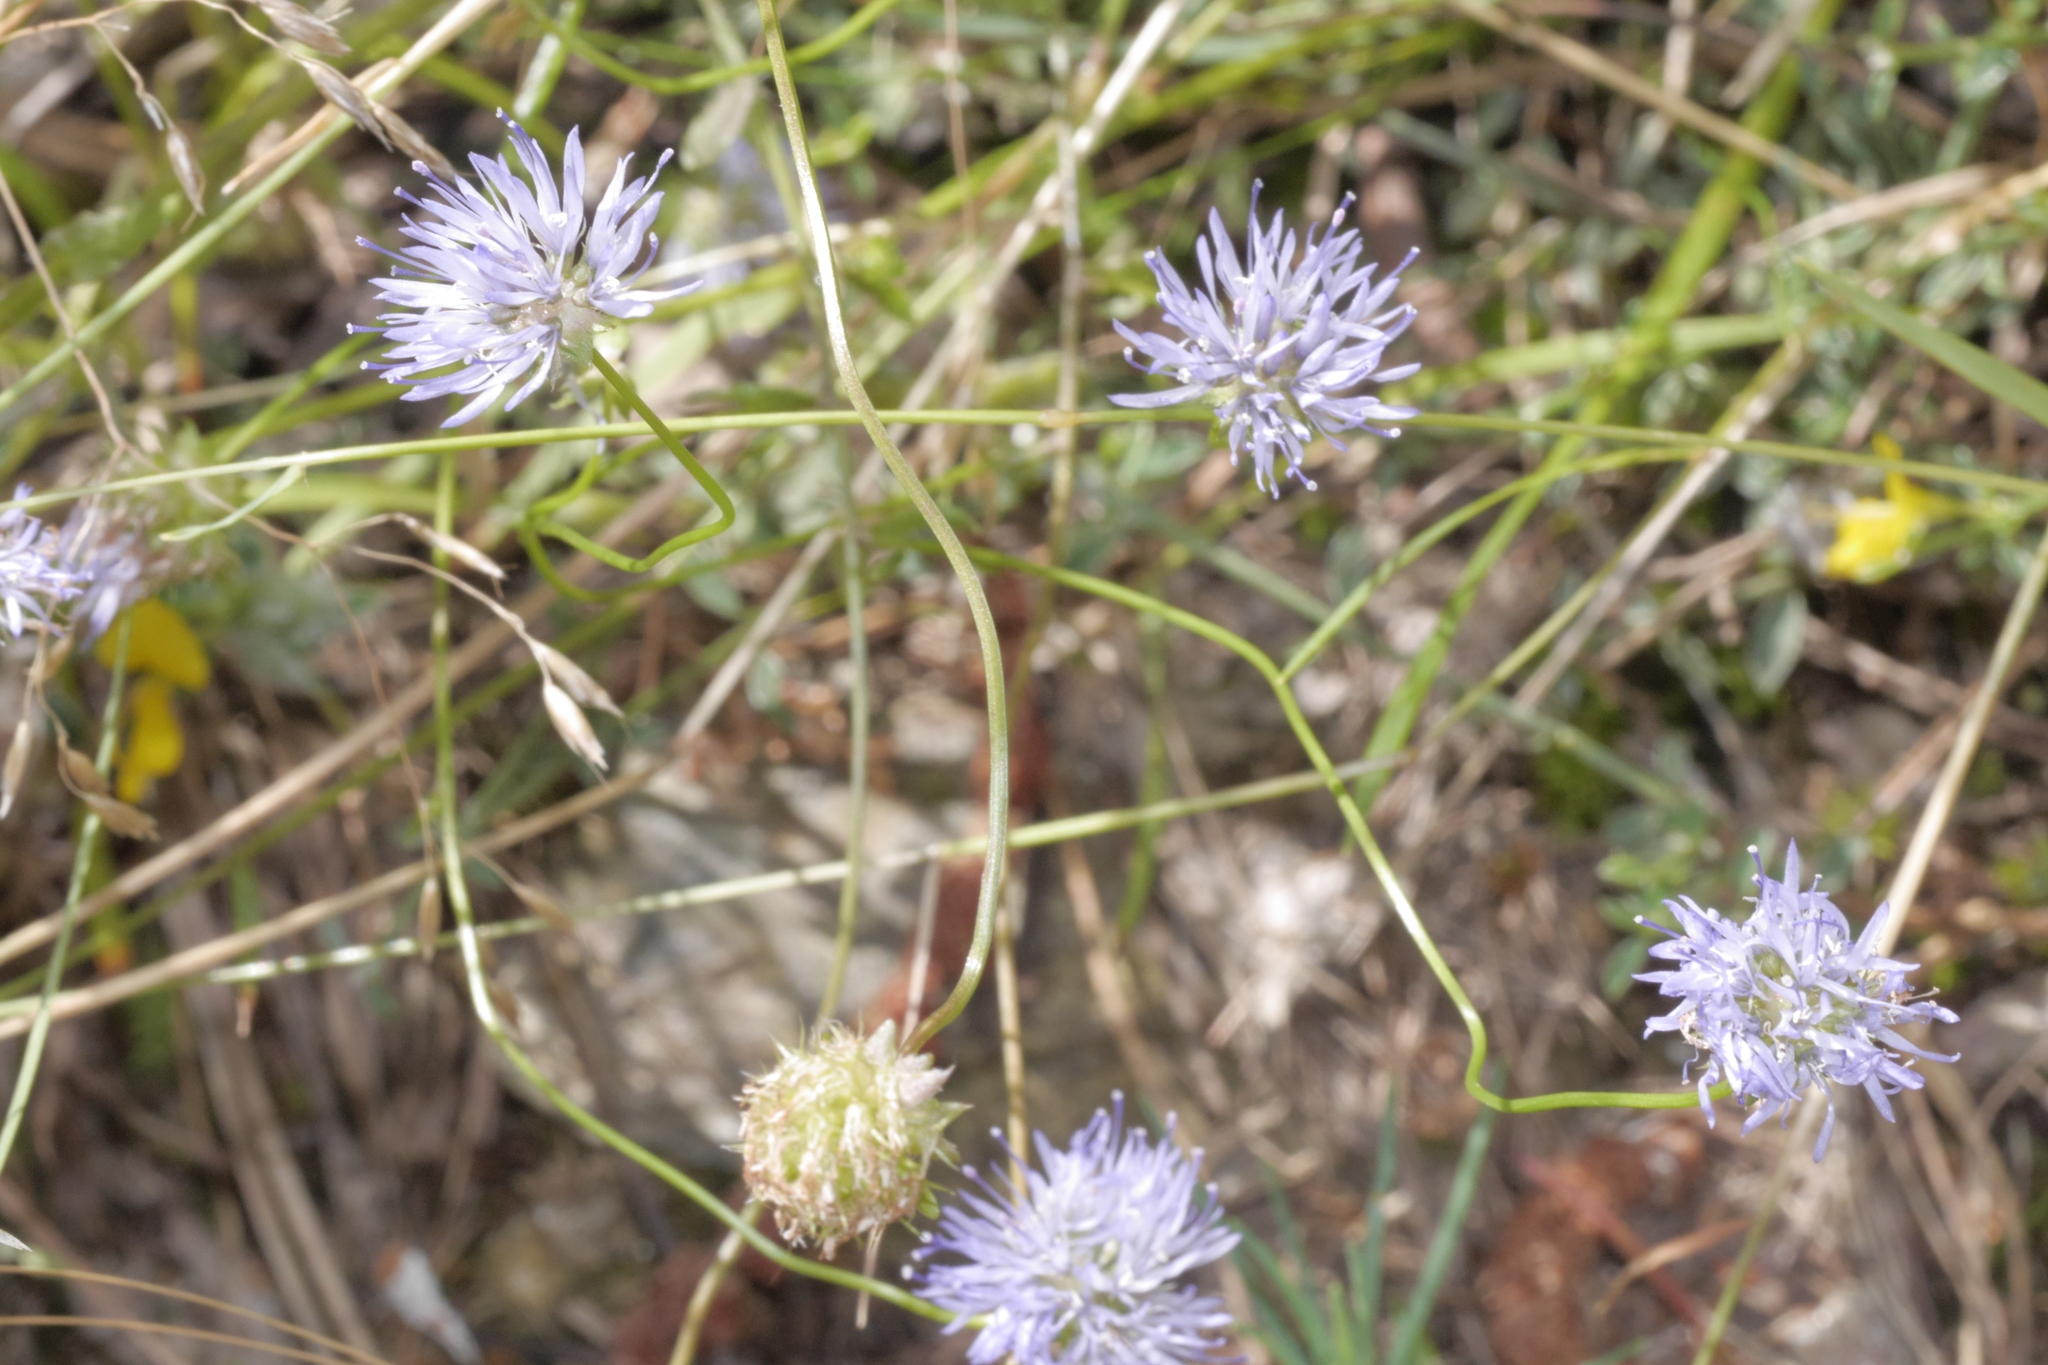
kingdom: Plantae
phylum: Tracheophyta
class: Magnoliopsida
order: Asterales
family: Campanulaceae
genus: Jasione
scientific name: Jasione montana
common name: Sheep's-bit
